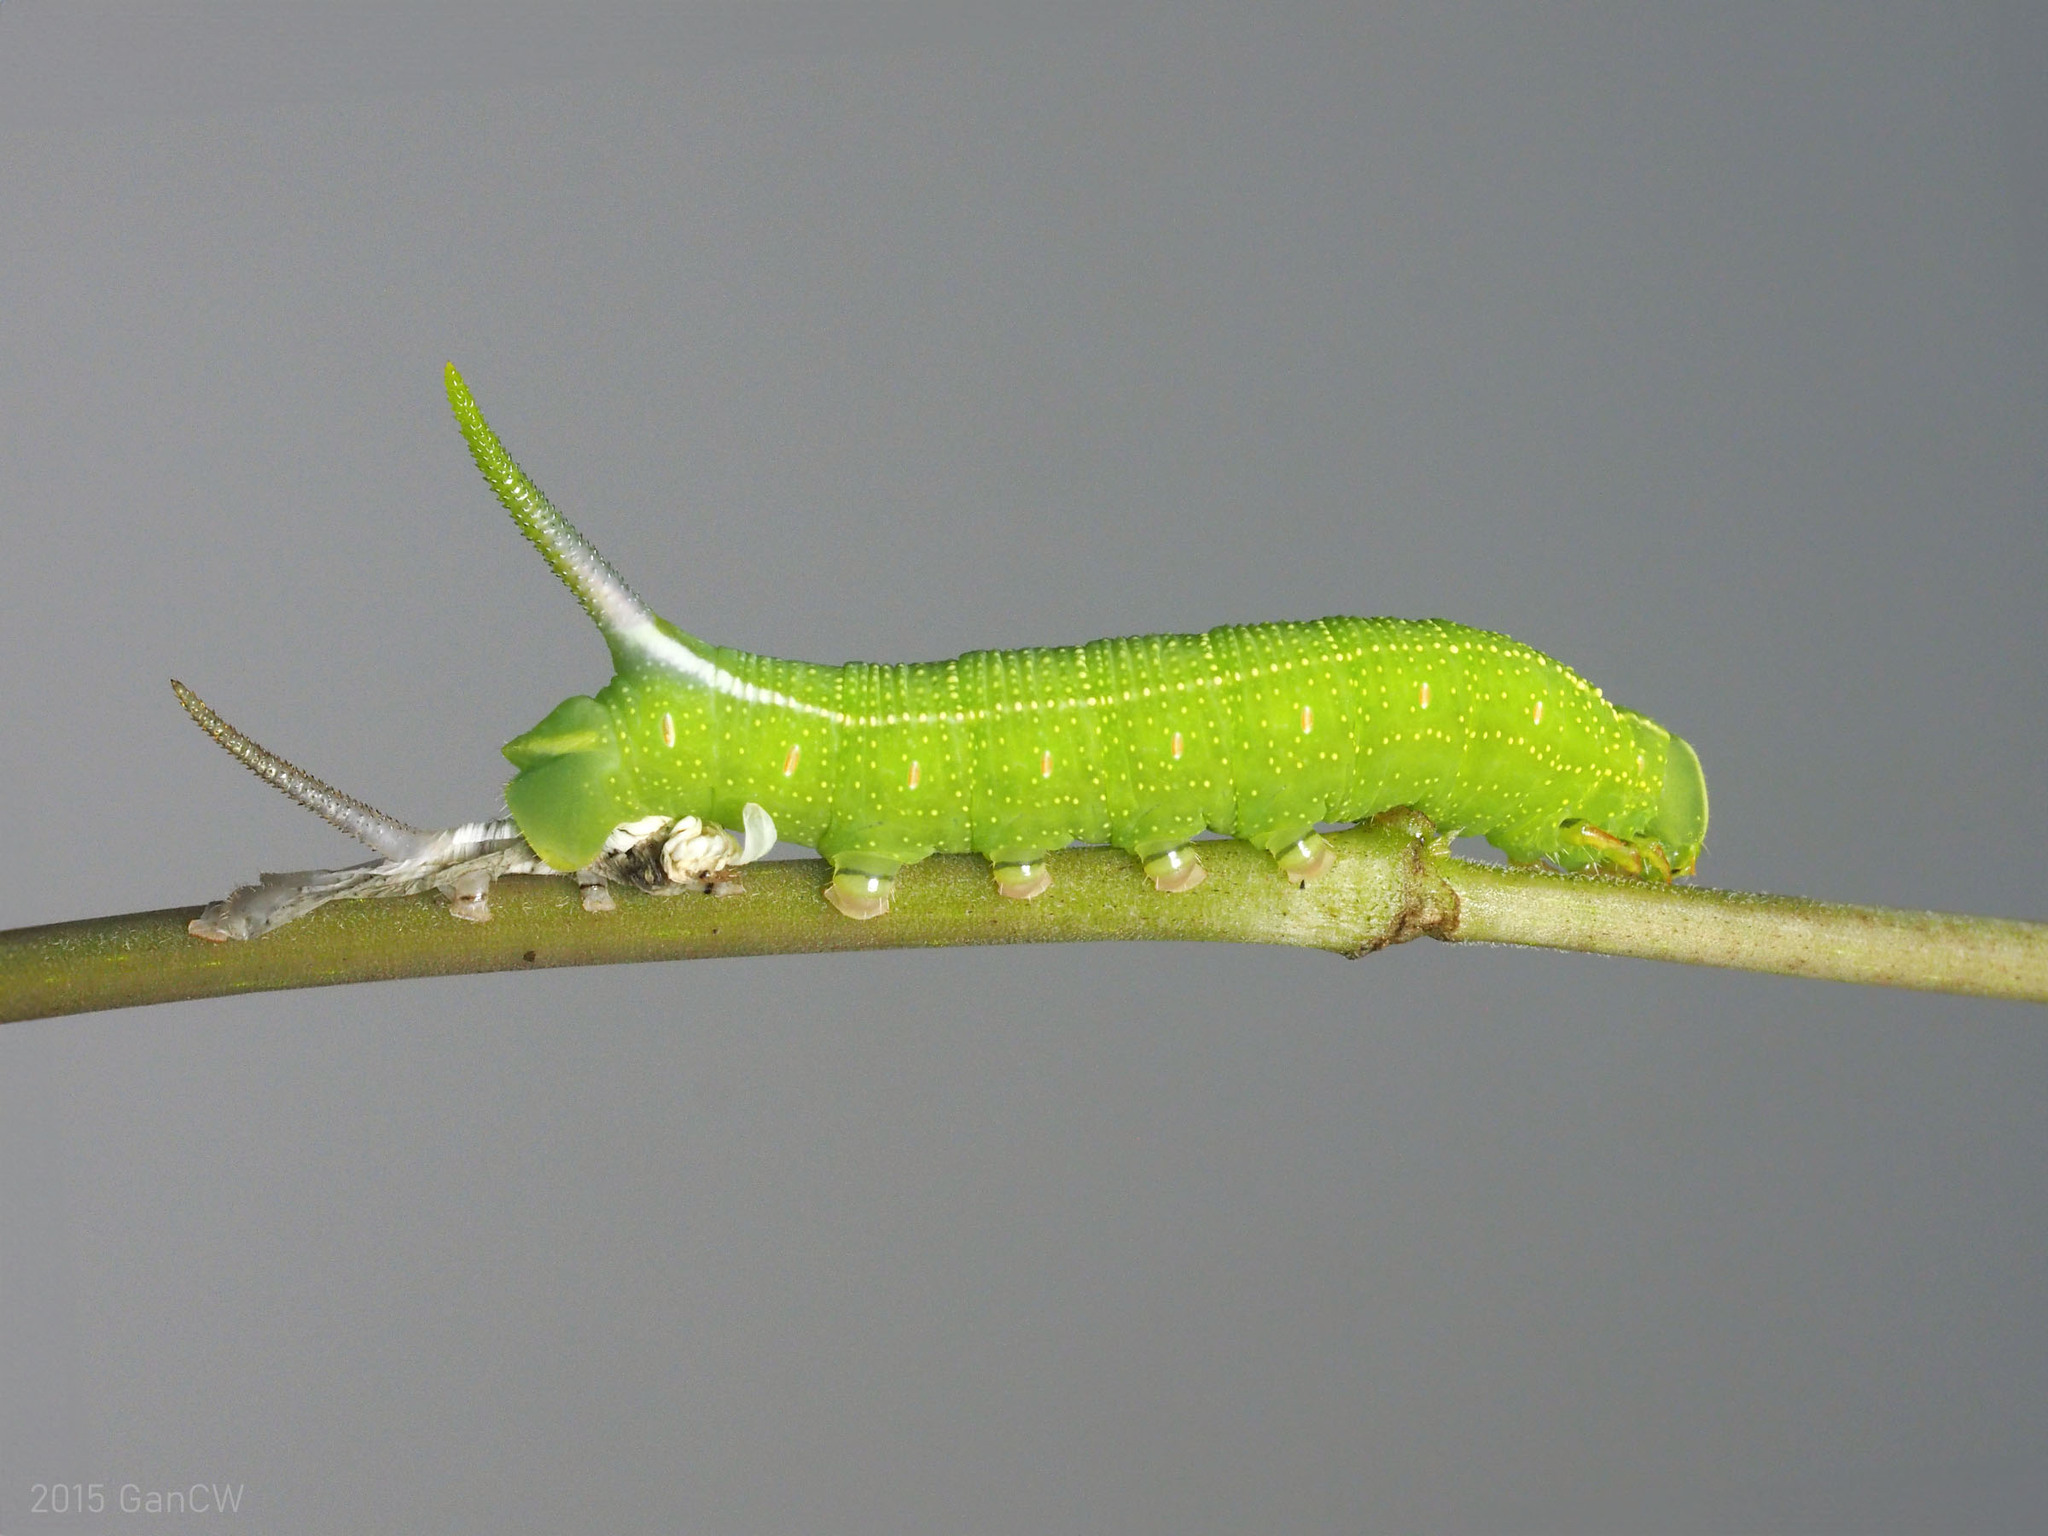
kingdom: Animalia
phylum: Arthropoda
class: Insecta
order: Lepidoptera
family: Sphingidae
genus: Macroglossum
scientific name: Macroglossum sitiene
